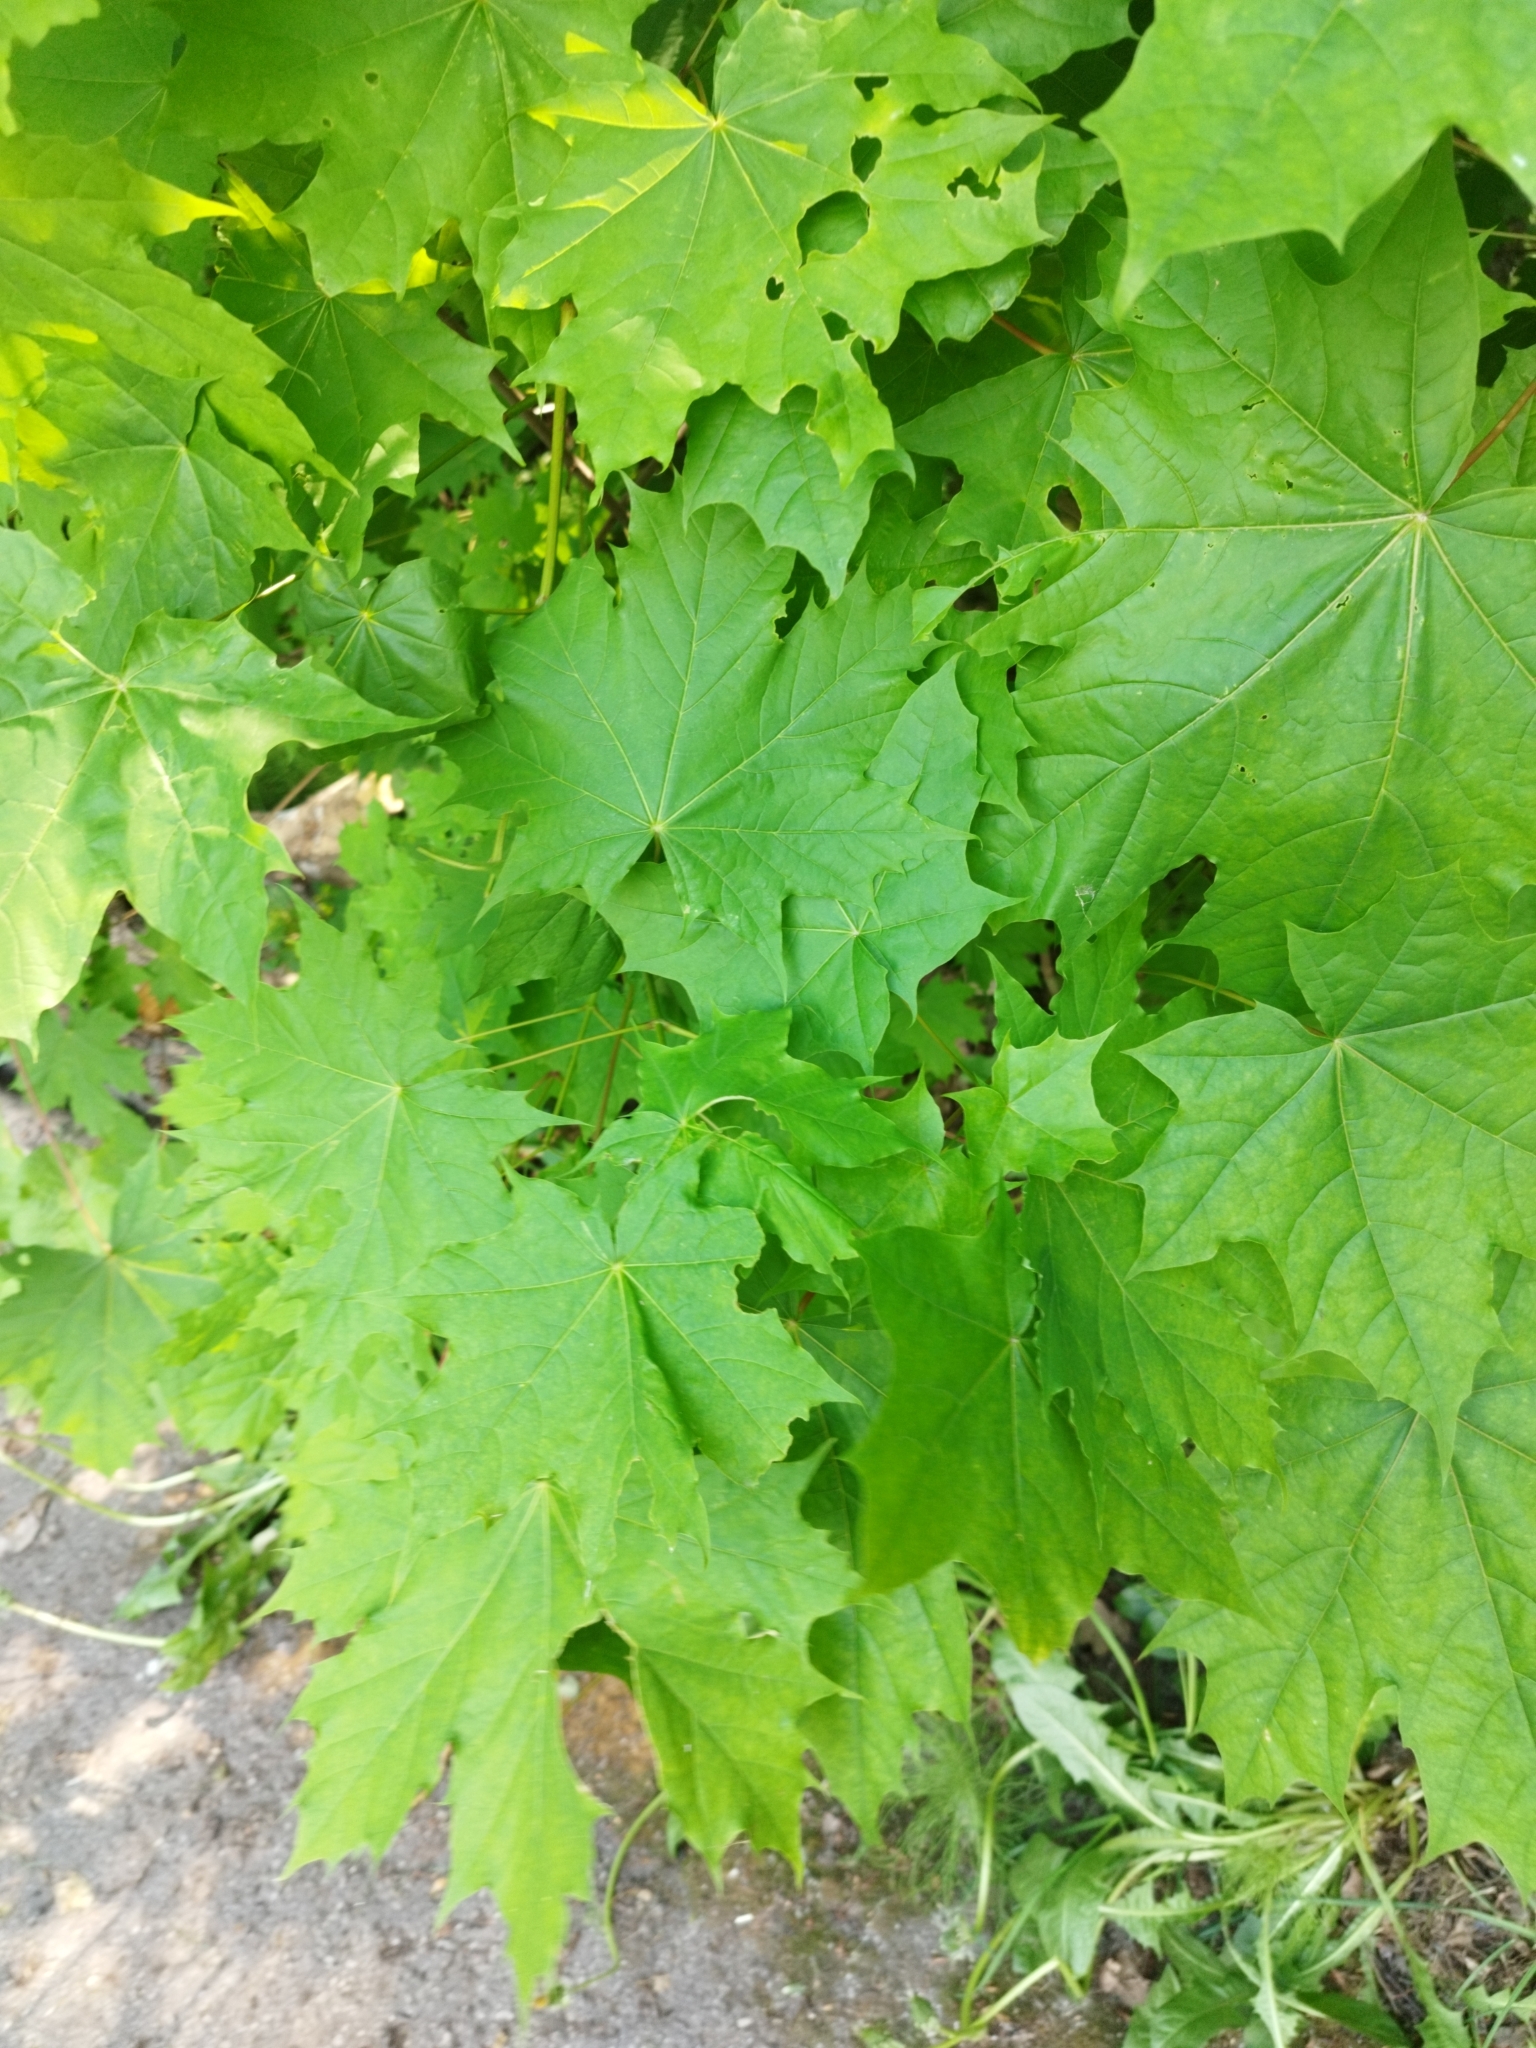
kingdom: Plantae
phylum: Tracheophyta
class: Magnoliopsida
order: Sapindales
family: Sapindaceae
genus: Acer
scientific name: Acer platanoides
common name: Norway maple
